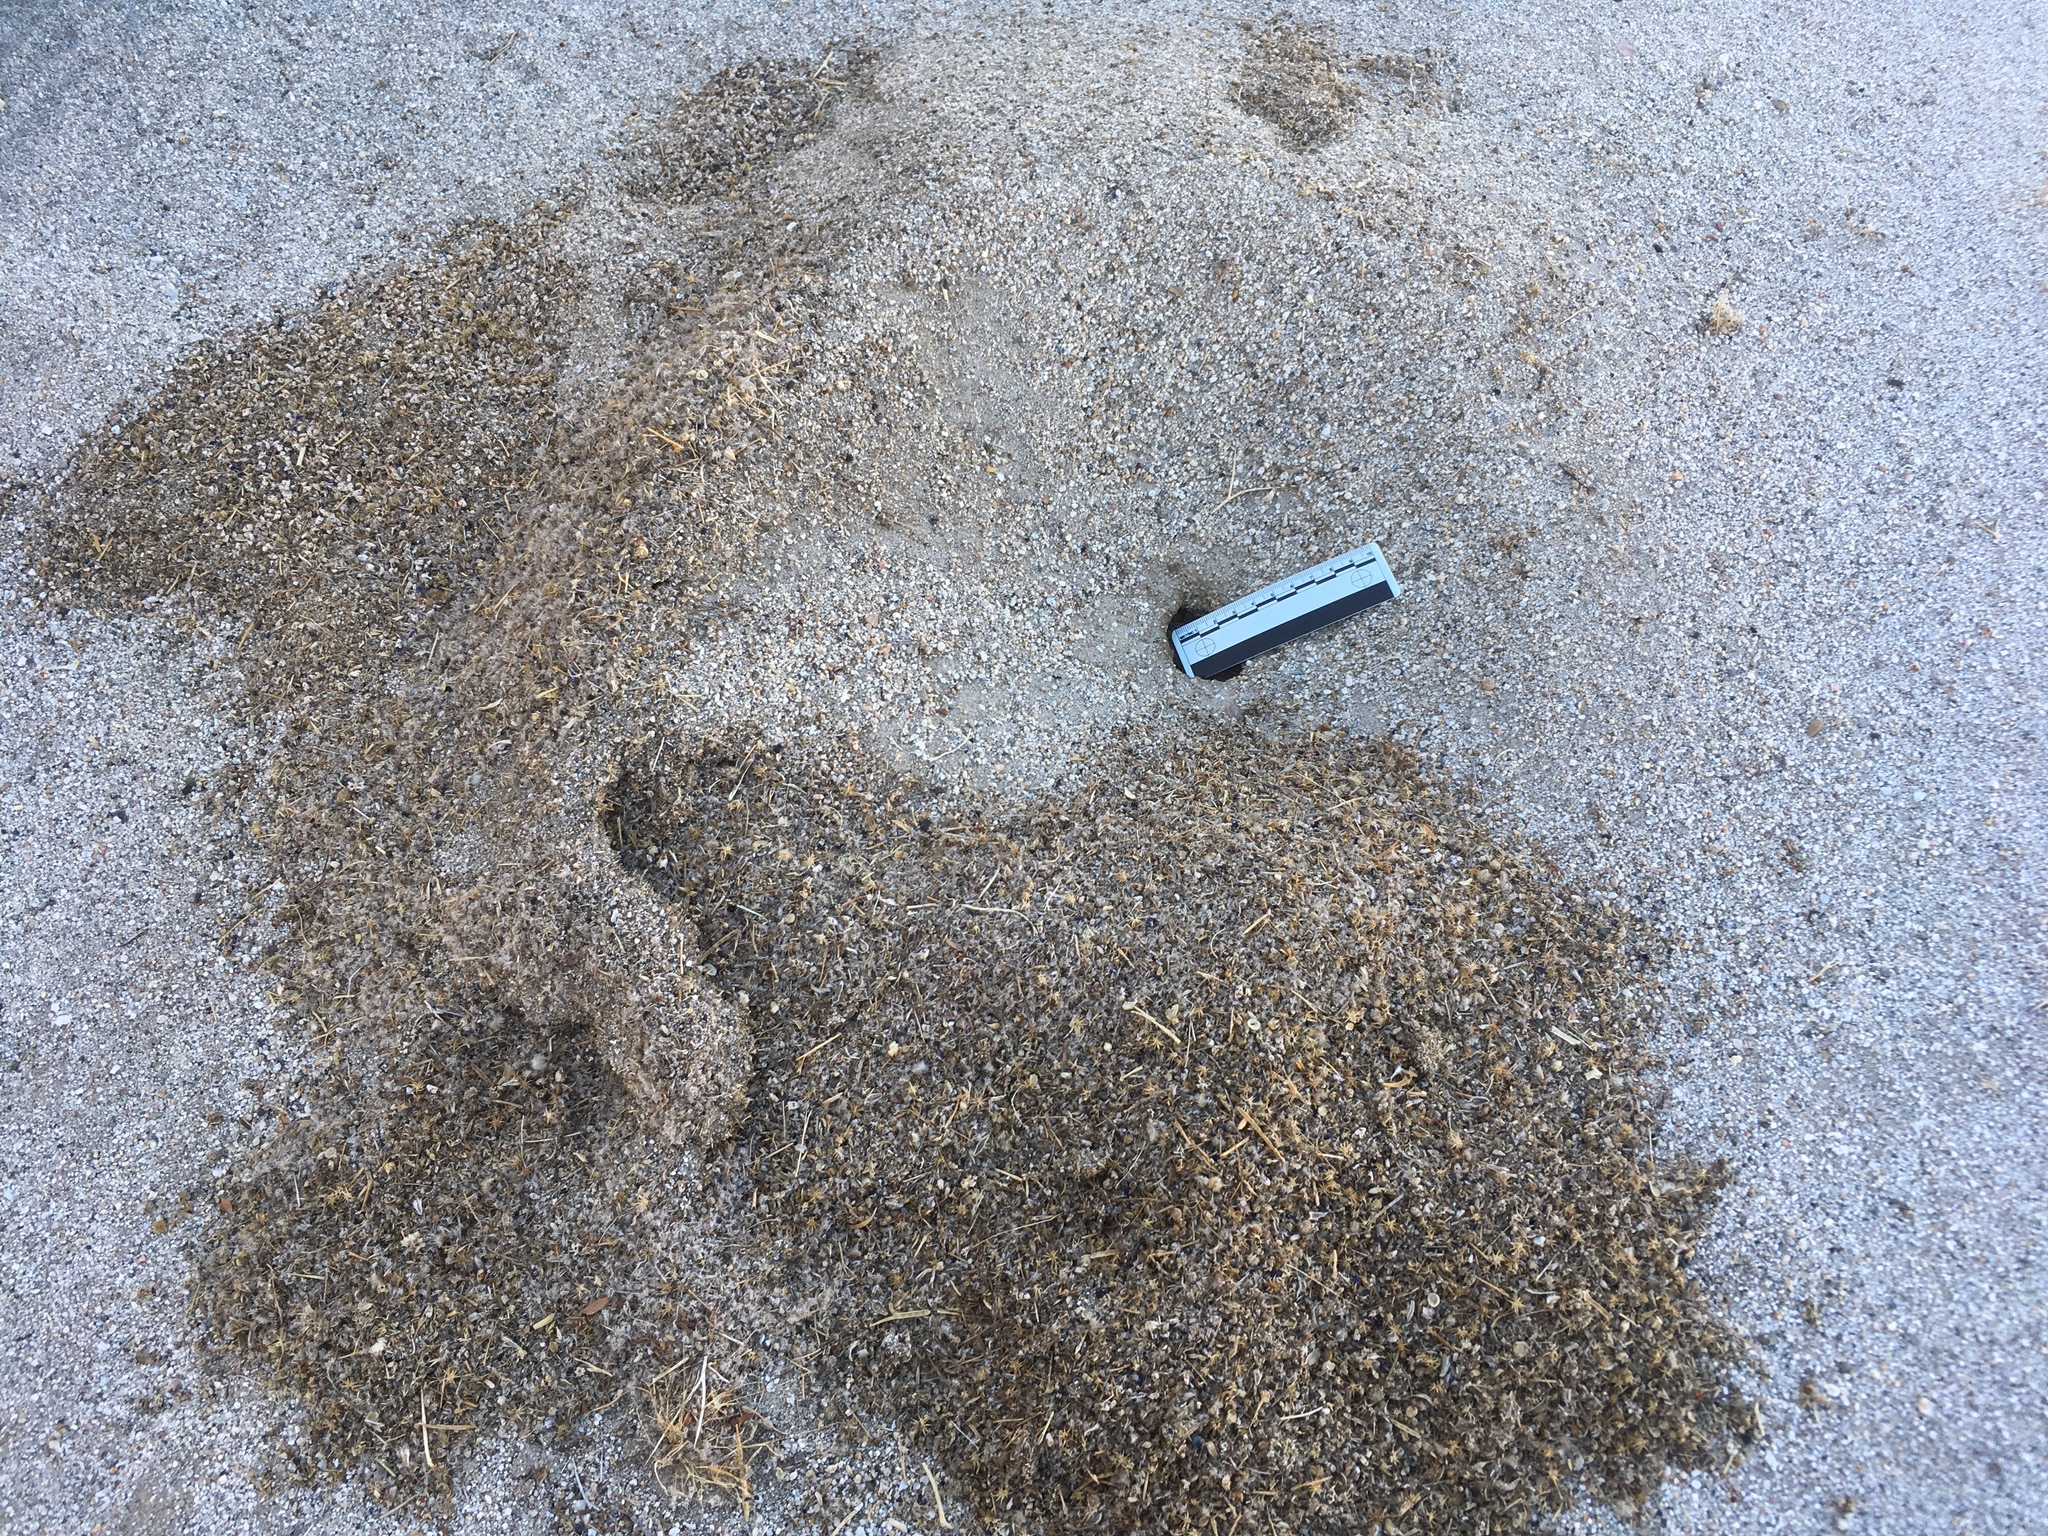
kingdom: Animalia
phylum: Arthropoda
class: Insecta
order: Hymenoptera
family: Formicidae
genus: Messor
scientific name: Messor pergandei
